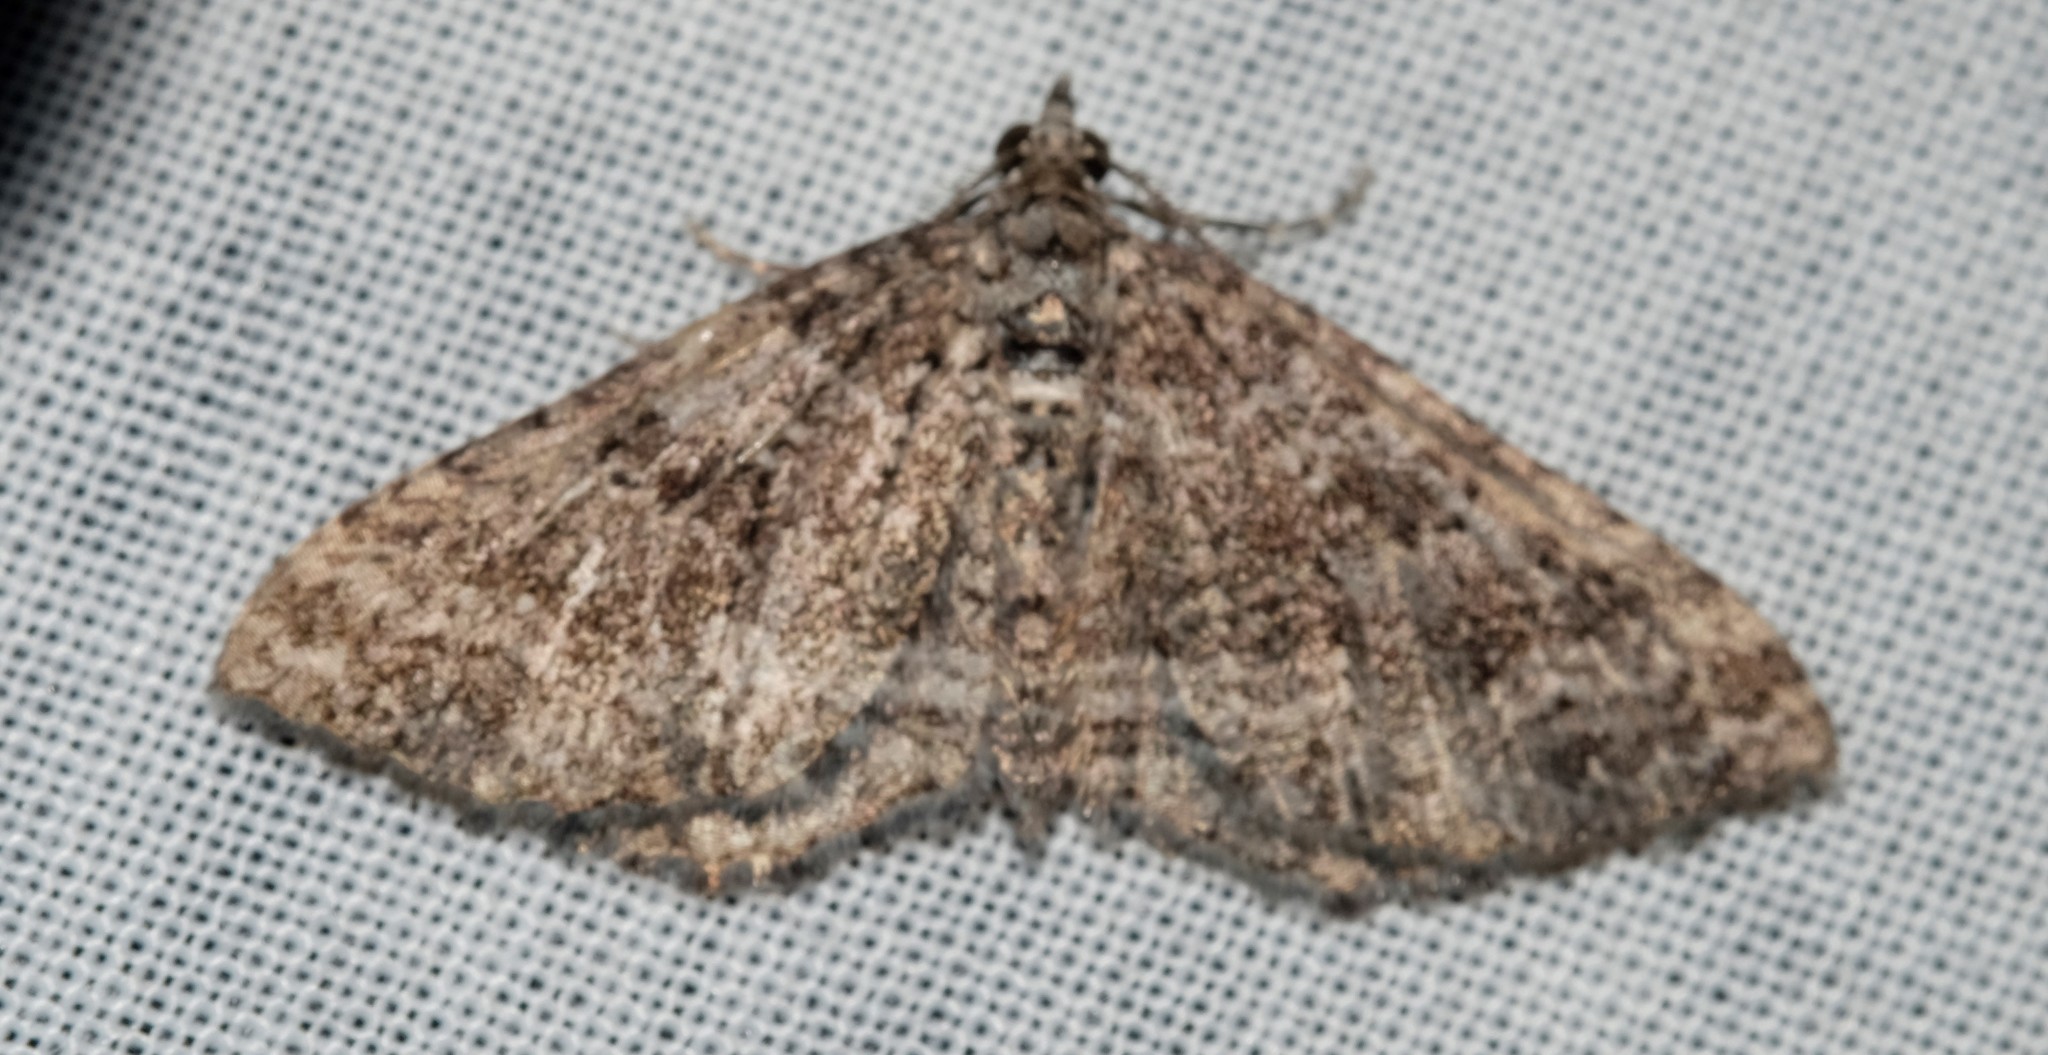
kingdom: Animalia
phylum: Arthropoda
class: Insecta
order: Lepidoptera
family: Geometridae
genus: Xanthorhoe
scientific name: Xanthorhoe xerodes
